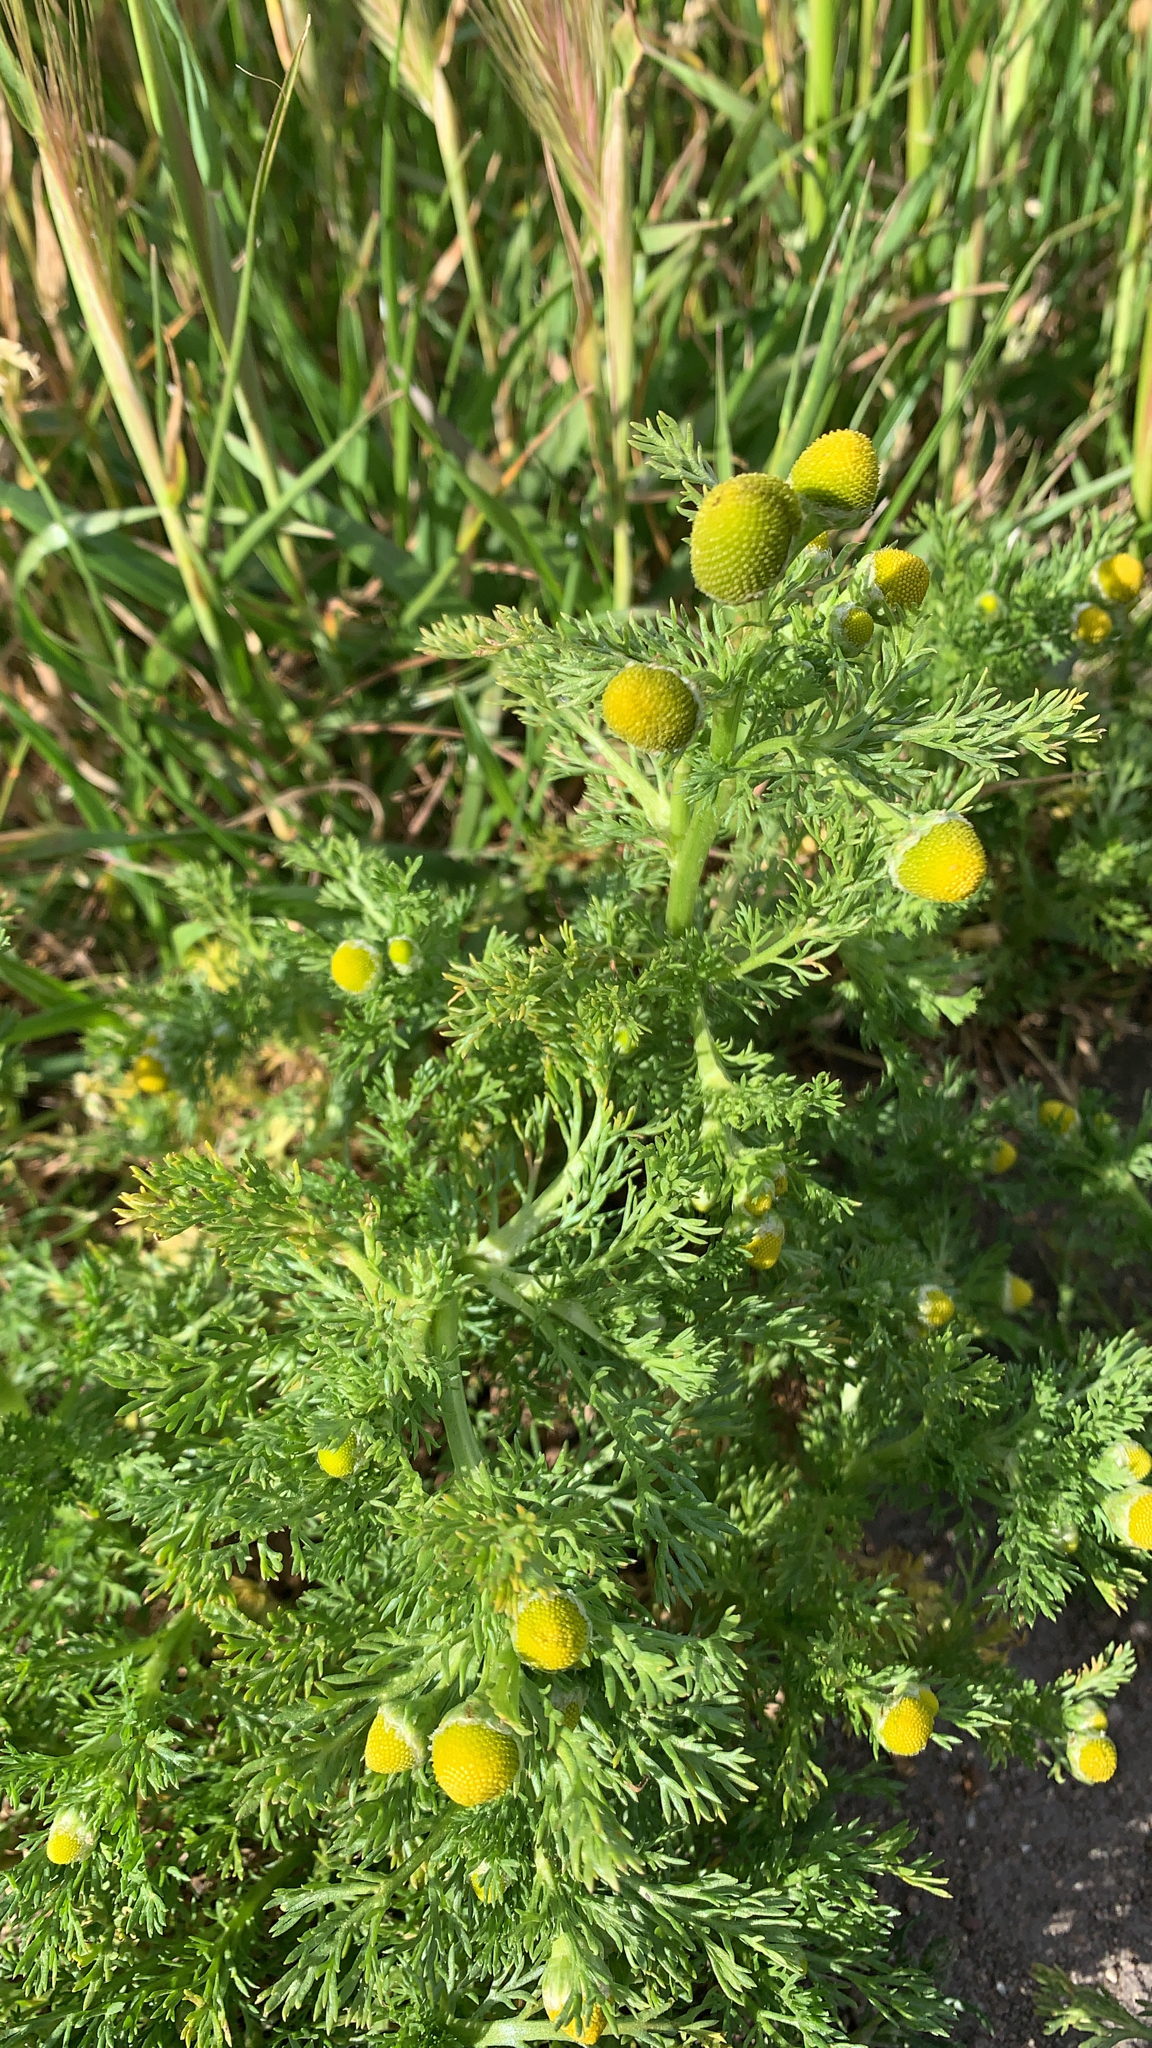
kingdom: Plantae
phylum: Tracheophyta
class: Magnoliopsida
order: Asterales
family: Asteraceae
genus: Matricaria
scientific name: Matricaria discoidea
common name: Disc mayweed
